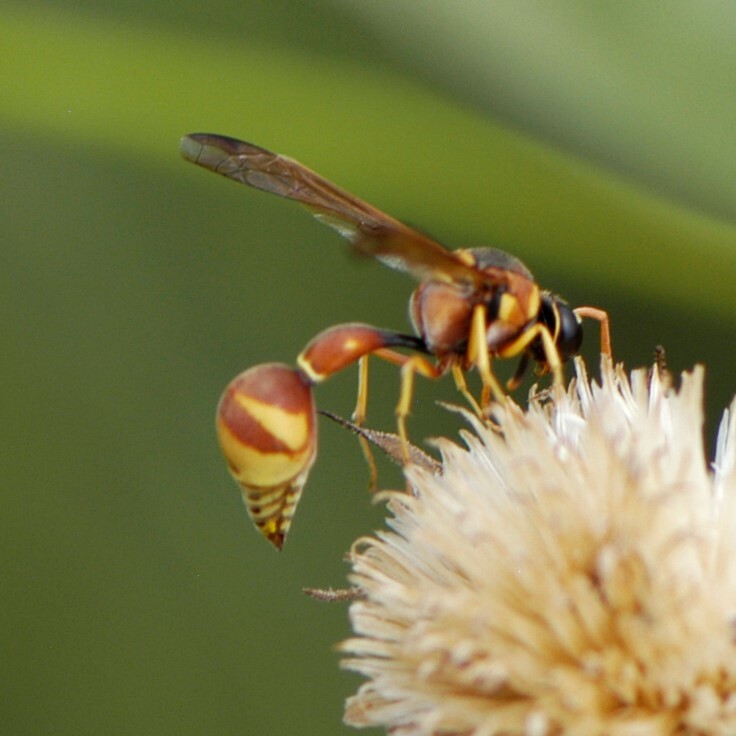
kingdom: Animalia
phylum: Arthropoda
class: Insecta
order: Hymenoptera
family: Vespidae
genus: Eumenes
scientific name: Eumenes americanus
